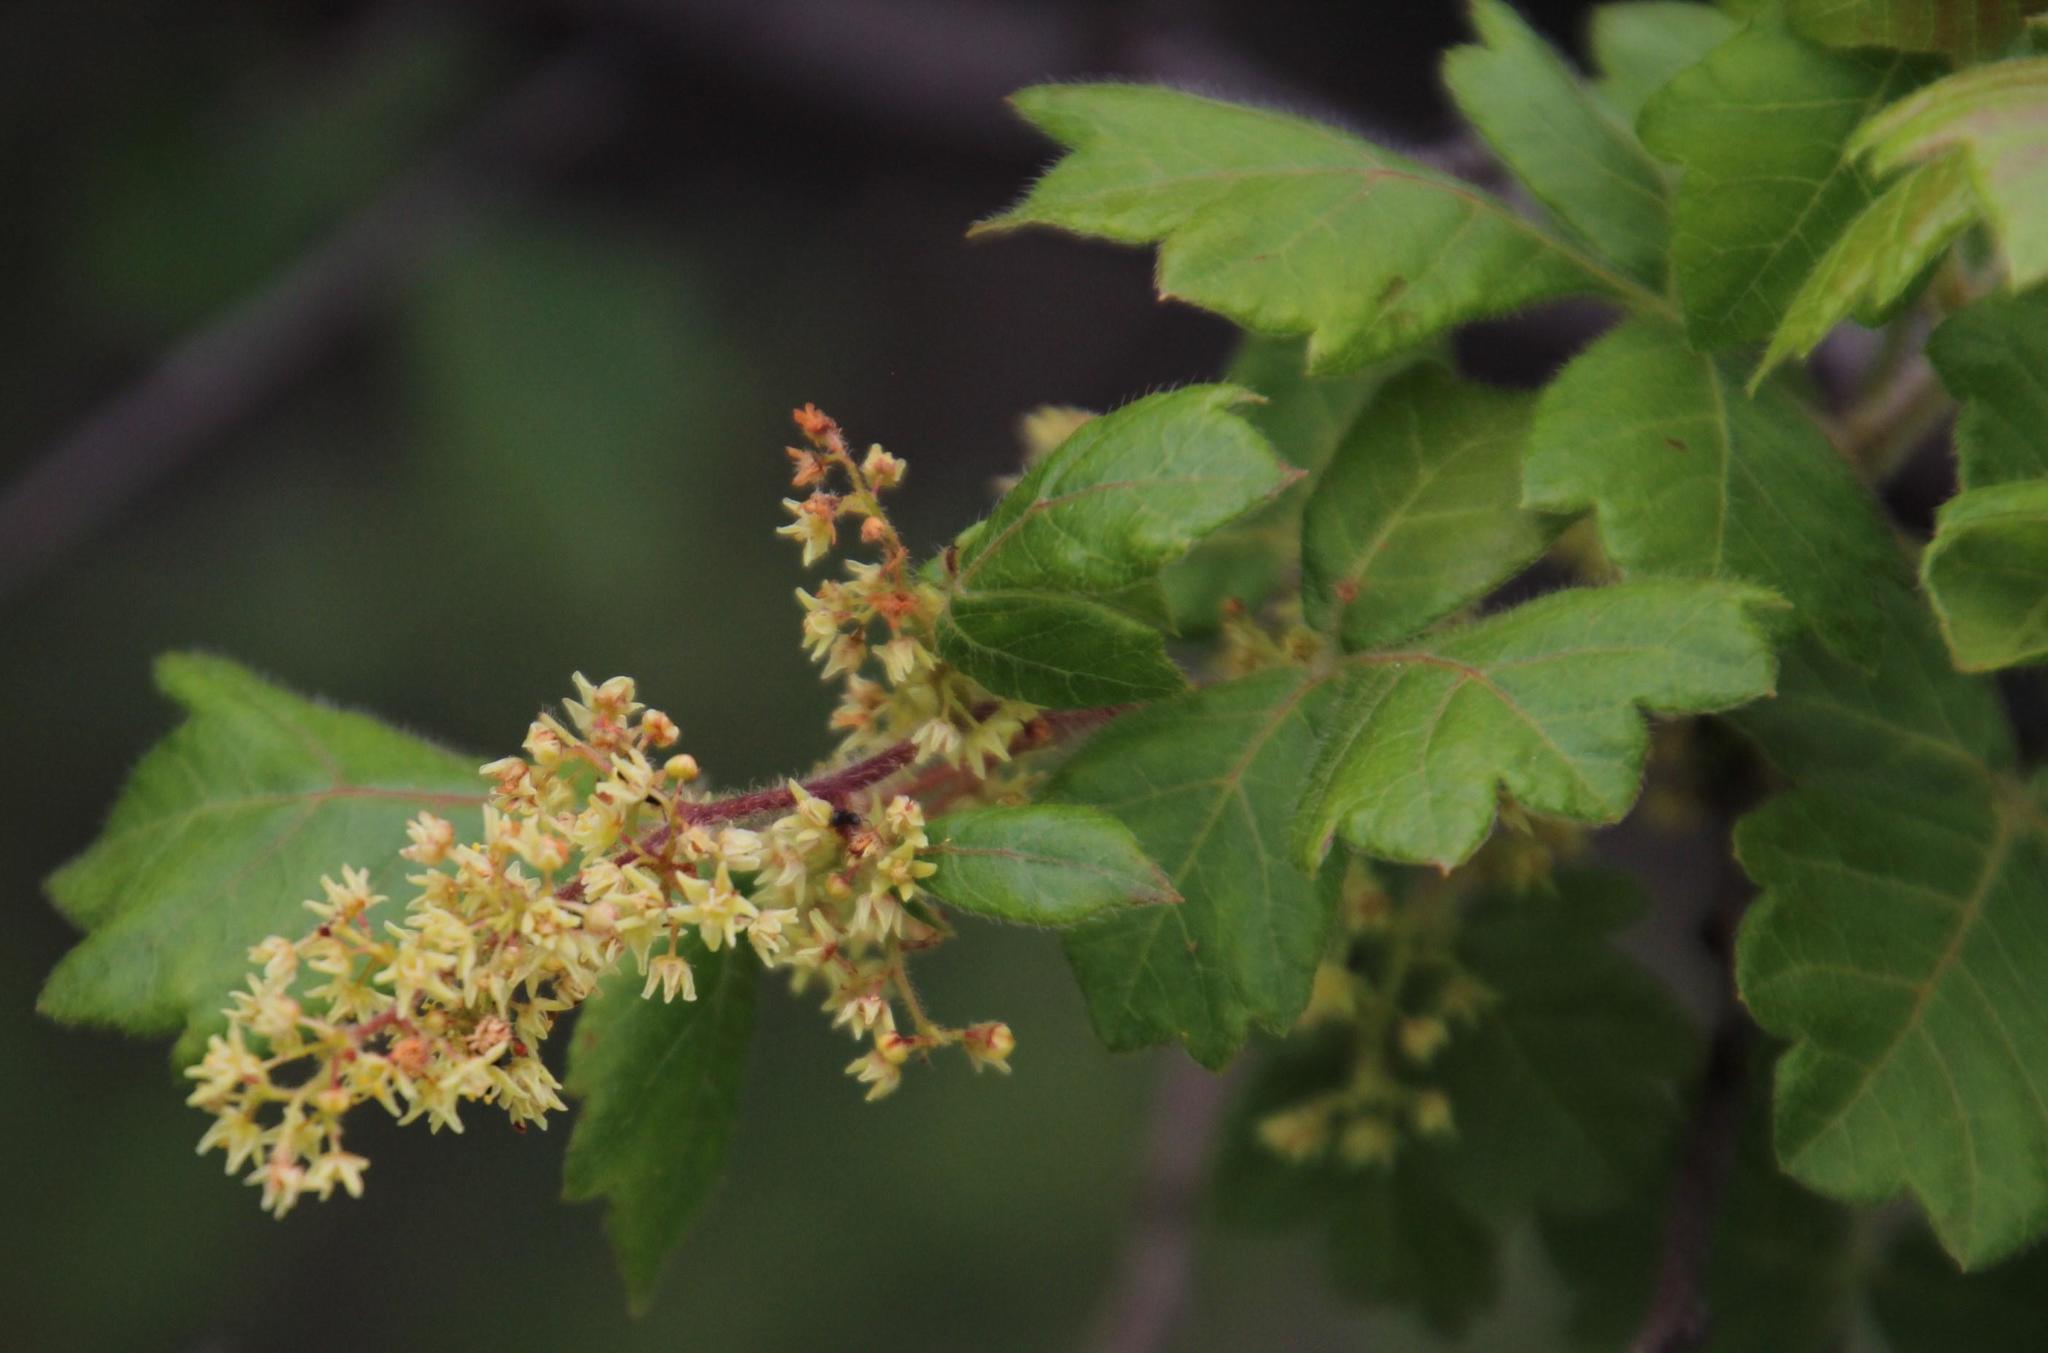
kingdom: Plantae
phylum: Tracheophyta
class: Magnoliopsida
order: Sapindales
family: Anacardiaceae
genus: Searsia
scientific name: Searsia dentata
